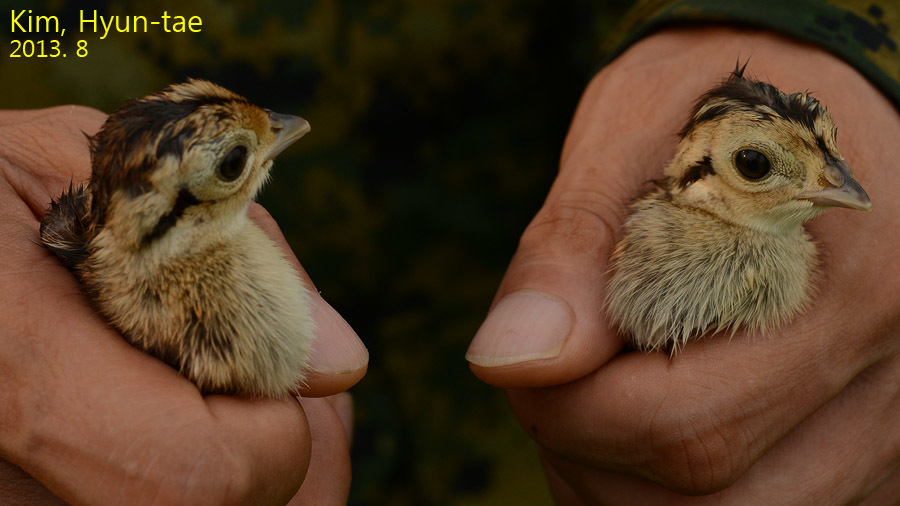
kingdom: Animalia
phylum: Chordata
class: Aves
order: Galliformes
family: Phasianidae
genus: Phasianus
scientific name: Phasianus colchicus
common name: Common pheasant
